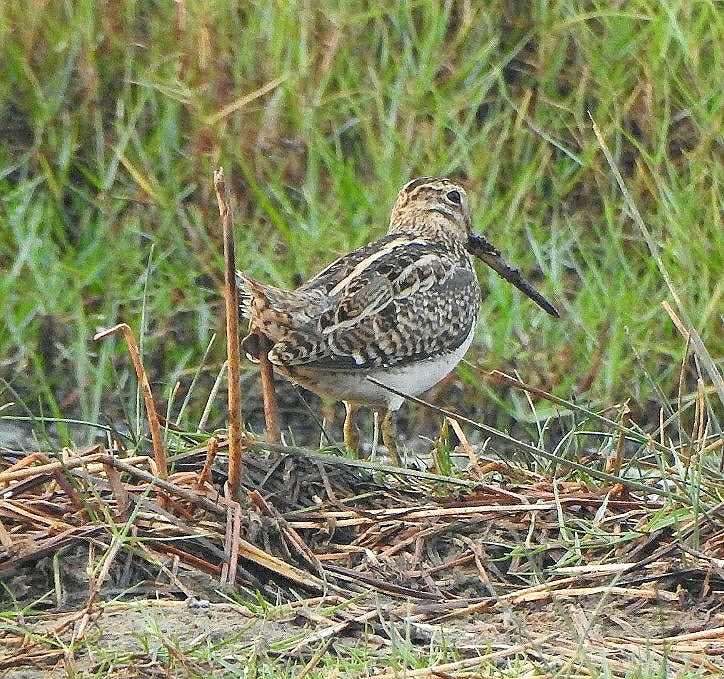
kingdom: Animalia
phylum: Chordata
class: Aves
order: Charadriiformes
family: Scolopacidae
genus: Gallinago
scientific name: Gallinago gallinago
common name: Common snipe
